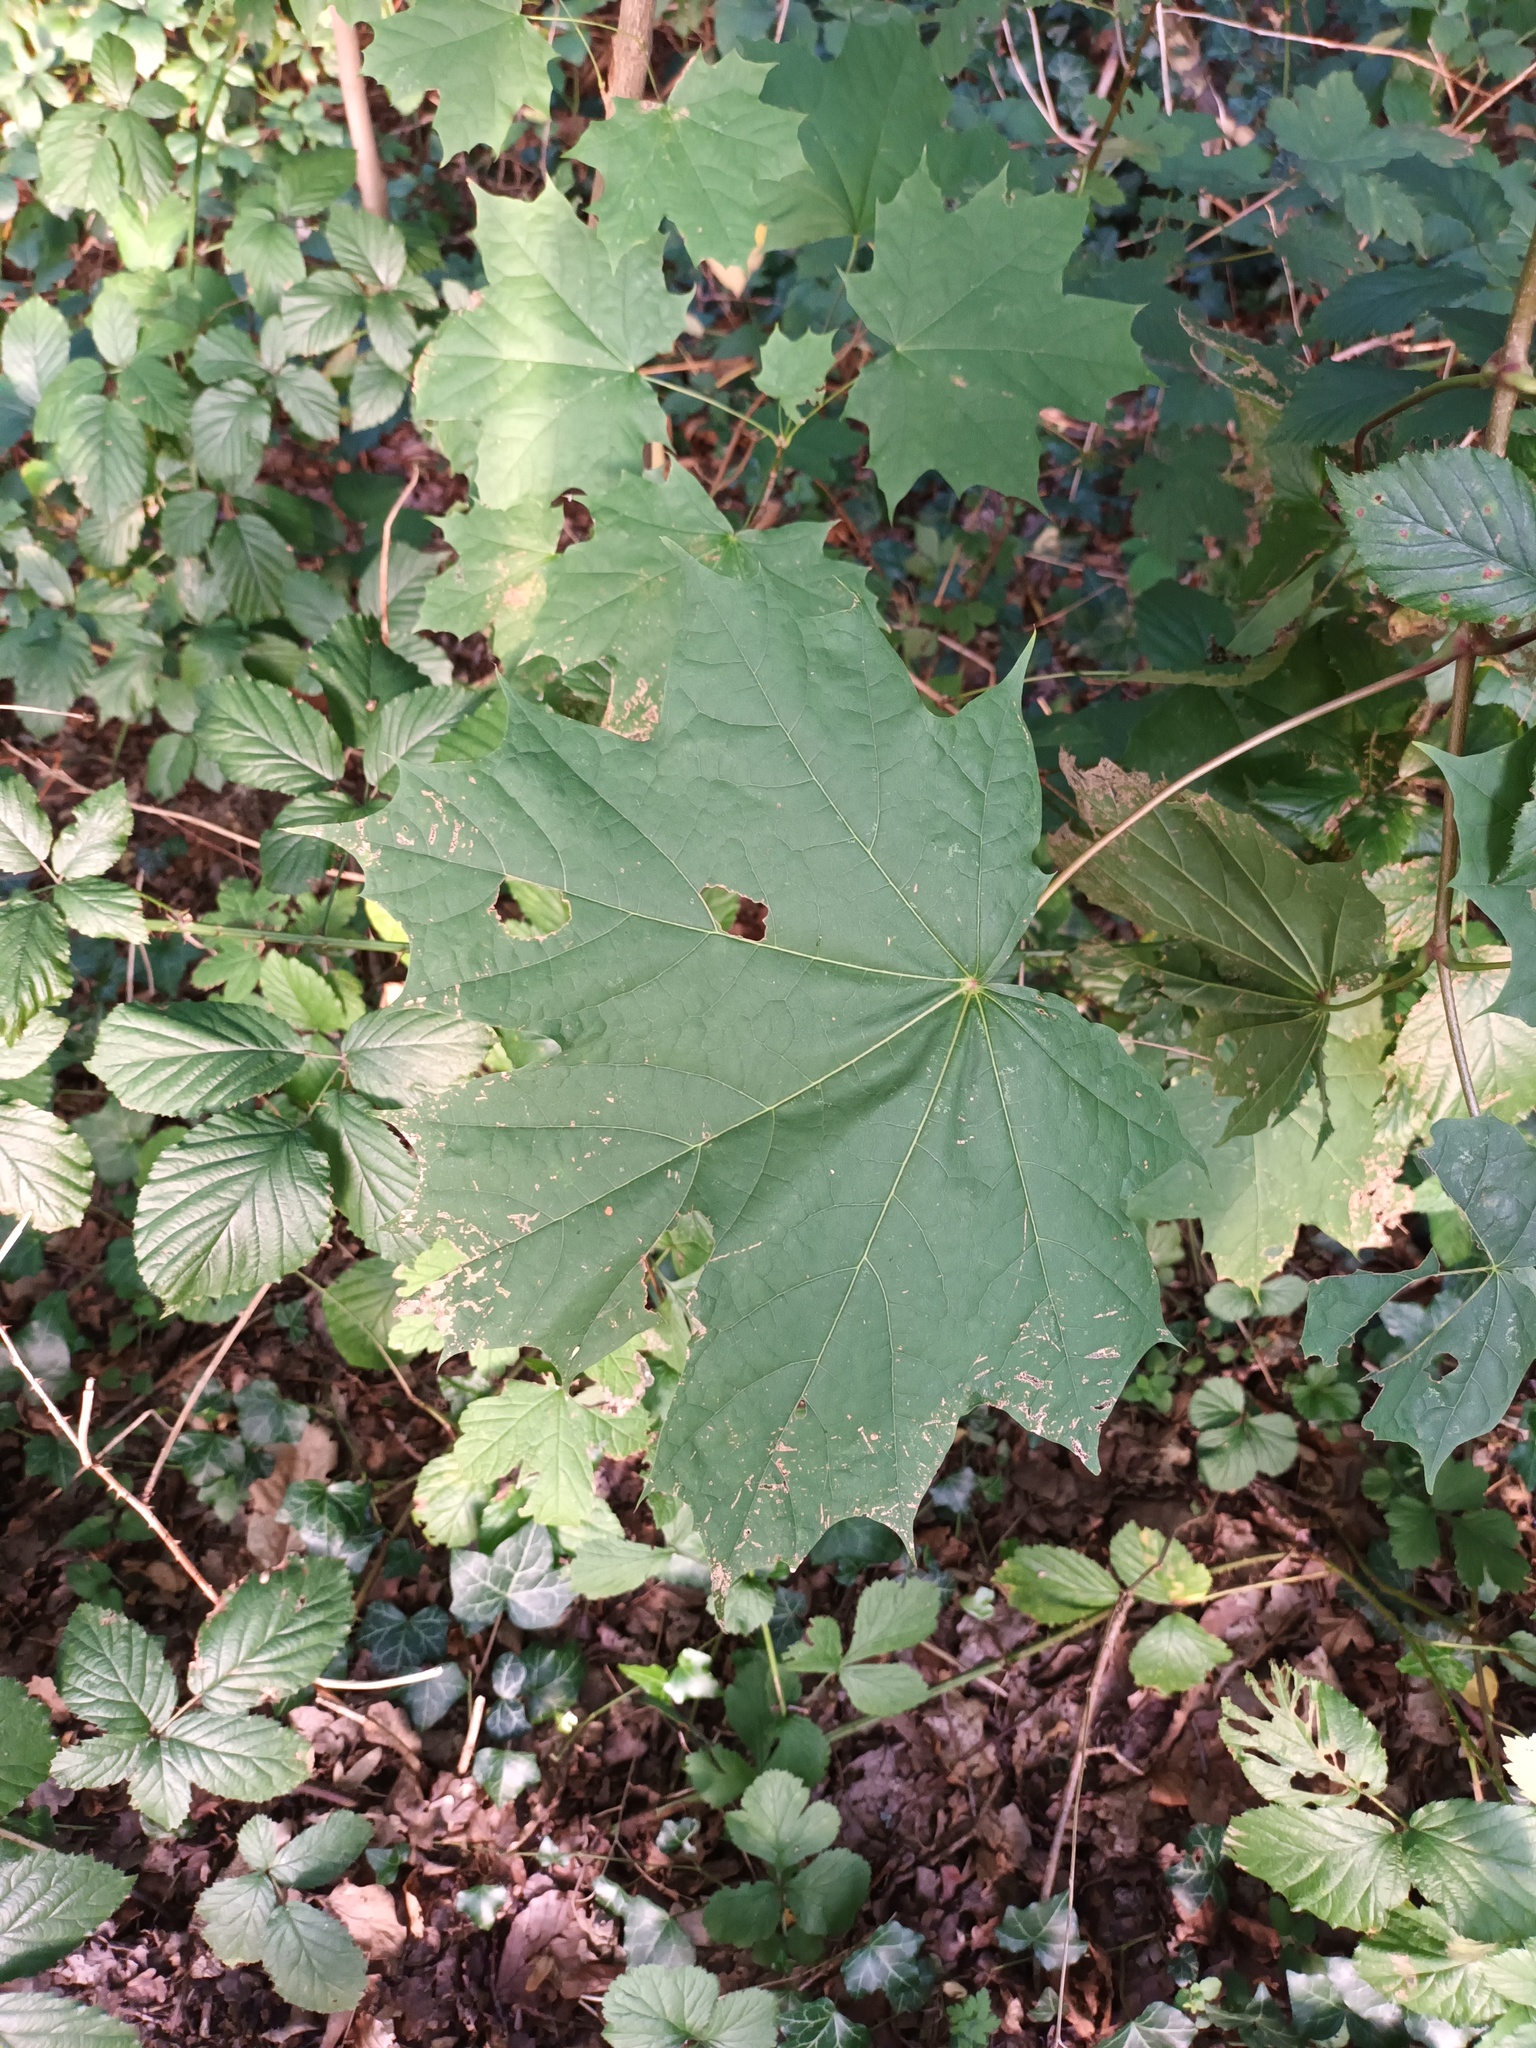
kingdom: Plantae
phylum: Tracheophyta
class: Magnoliopsida
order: Sapindales
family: Sapindaceae
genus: Acer
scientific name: Acer platanoides
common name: Norway maple
